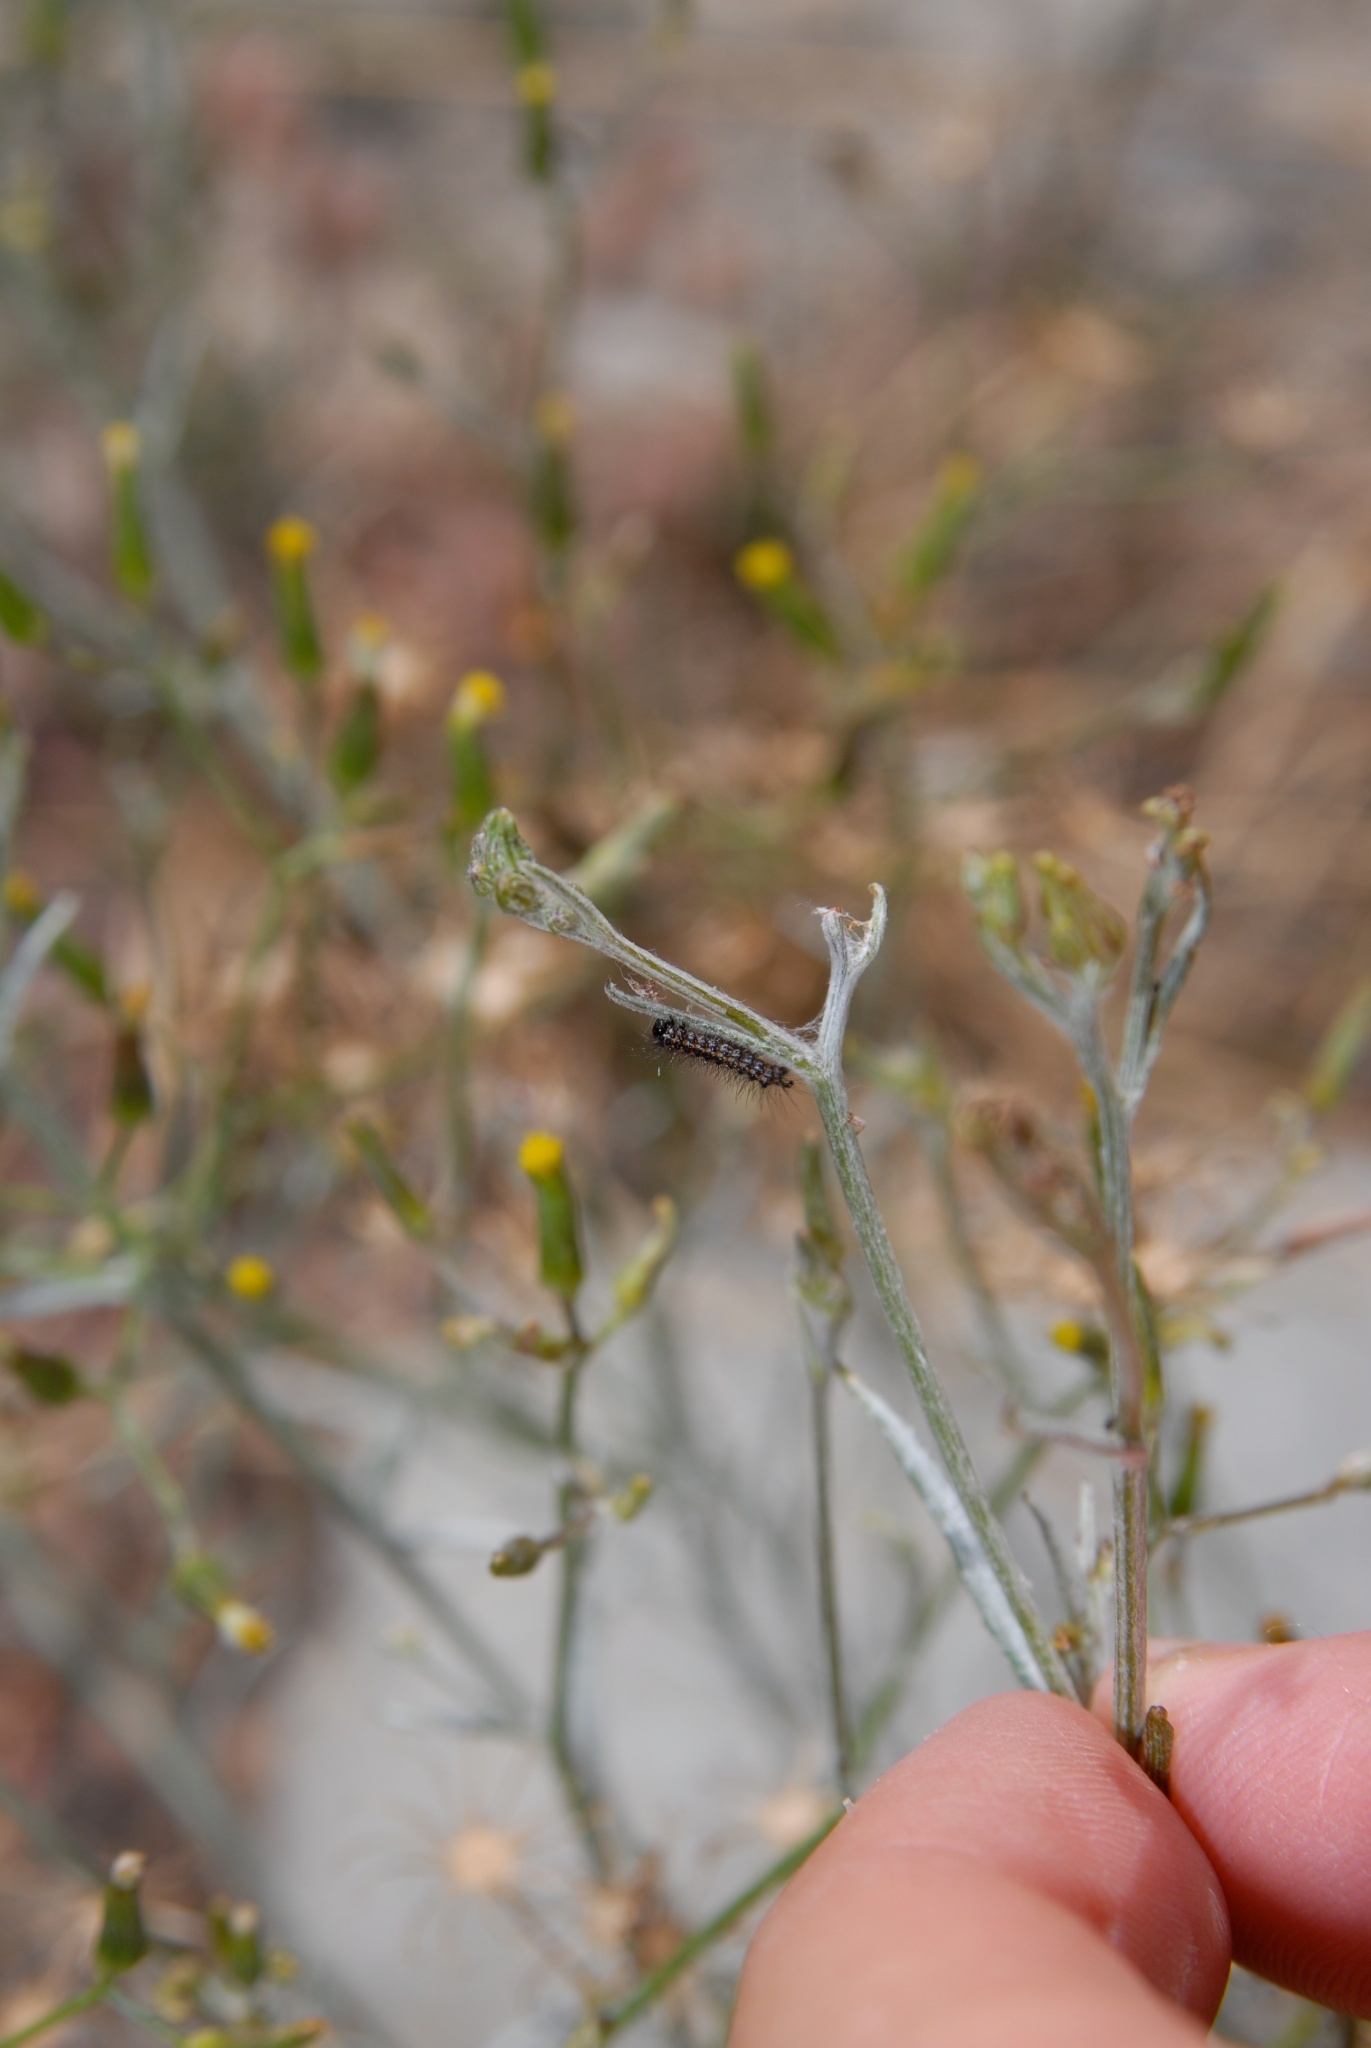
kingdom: Animalia
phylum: Arthropoda
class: Insecta
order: Lepidoptera
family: Erebidae
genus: Nyctemera
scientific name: Nyctemera annulatum
